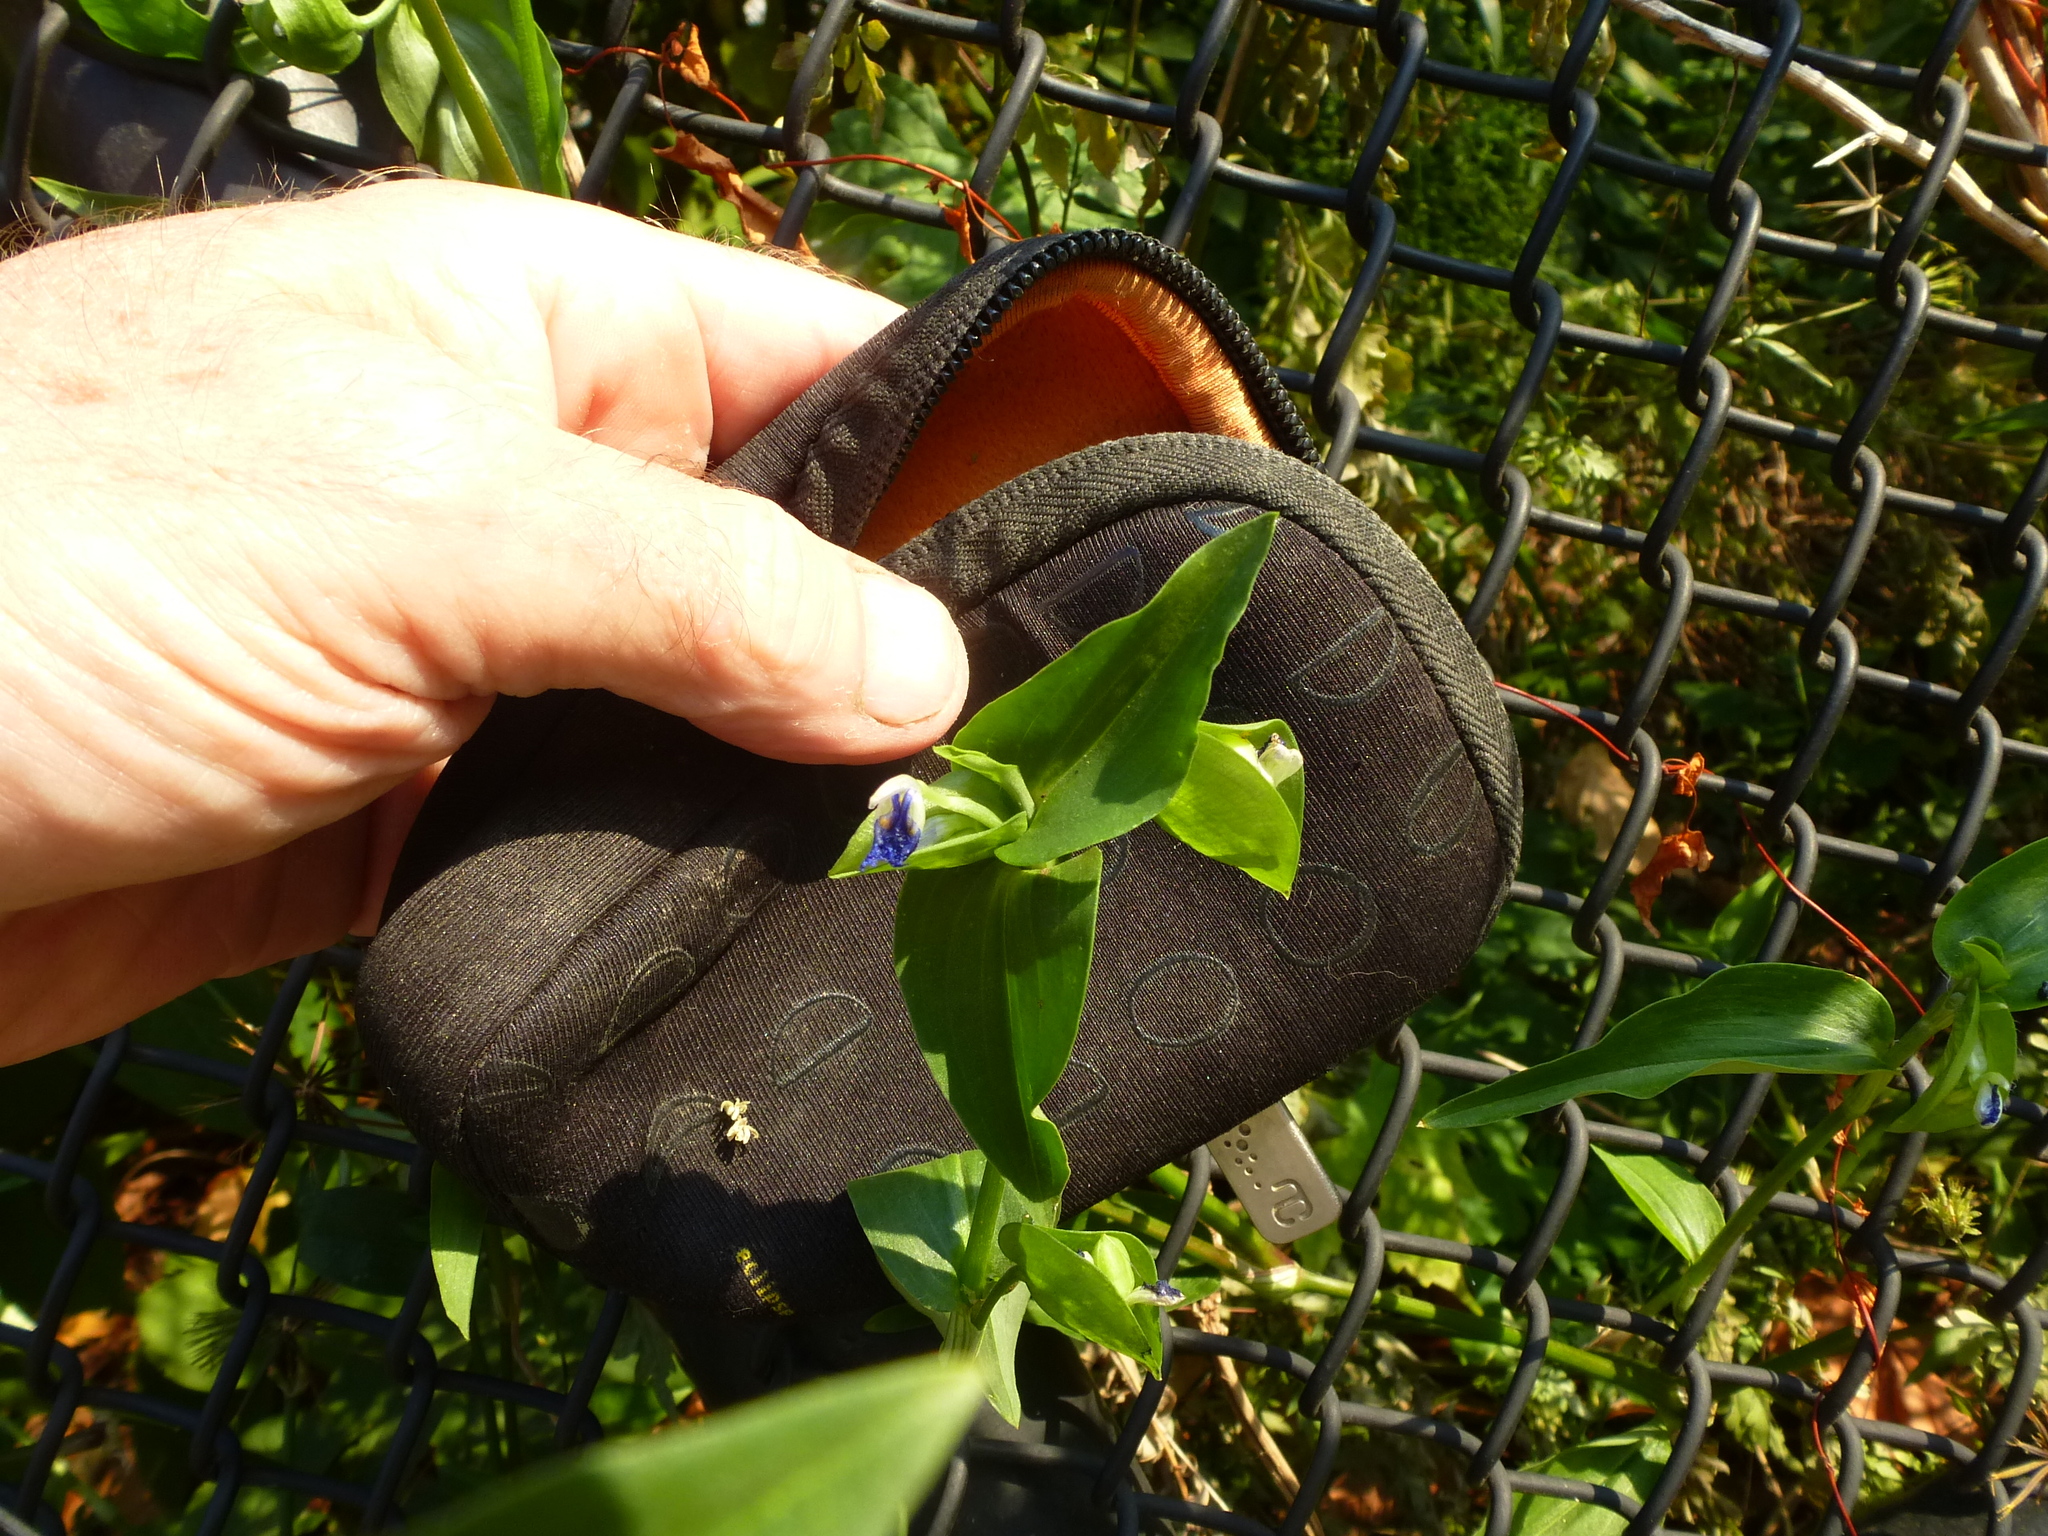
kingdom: Plantae
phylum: Tracheophyta
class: Liliopsida
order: Commelinales
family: Commelinaceae
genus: Commelina
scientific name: Commelina communis
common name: Asiatic dayflower
